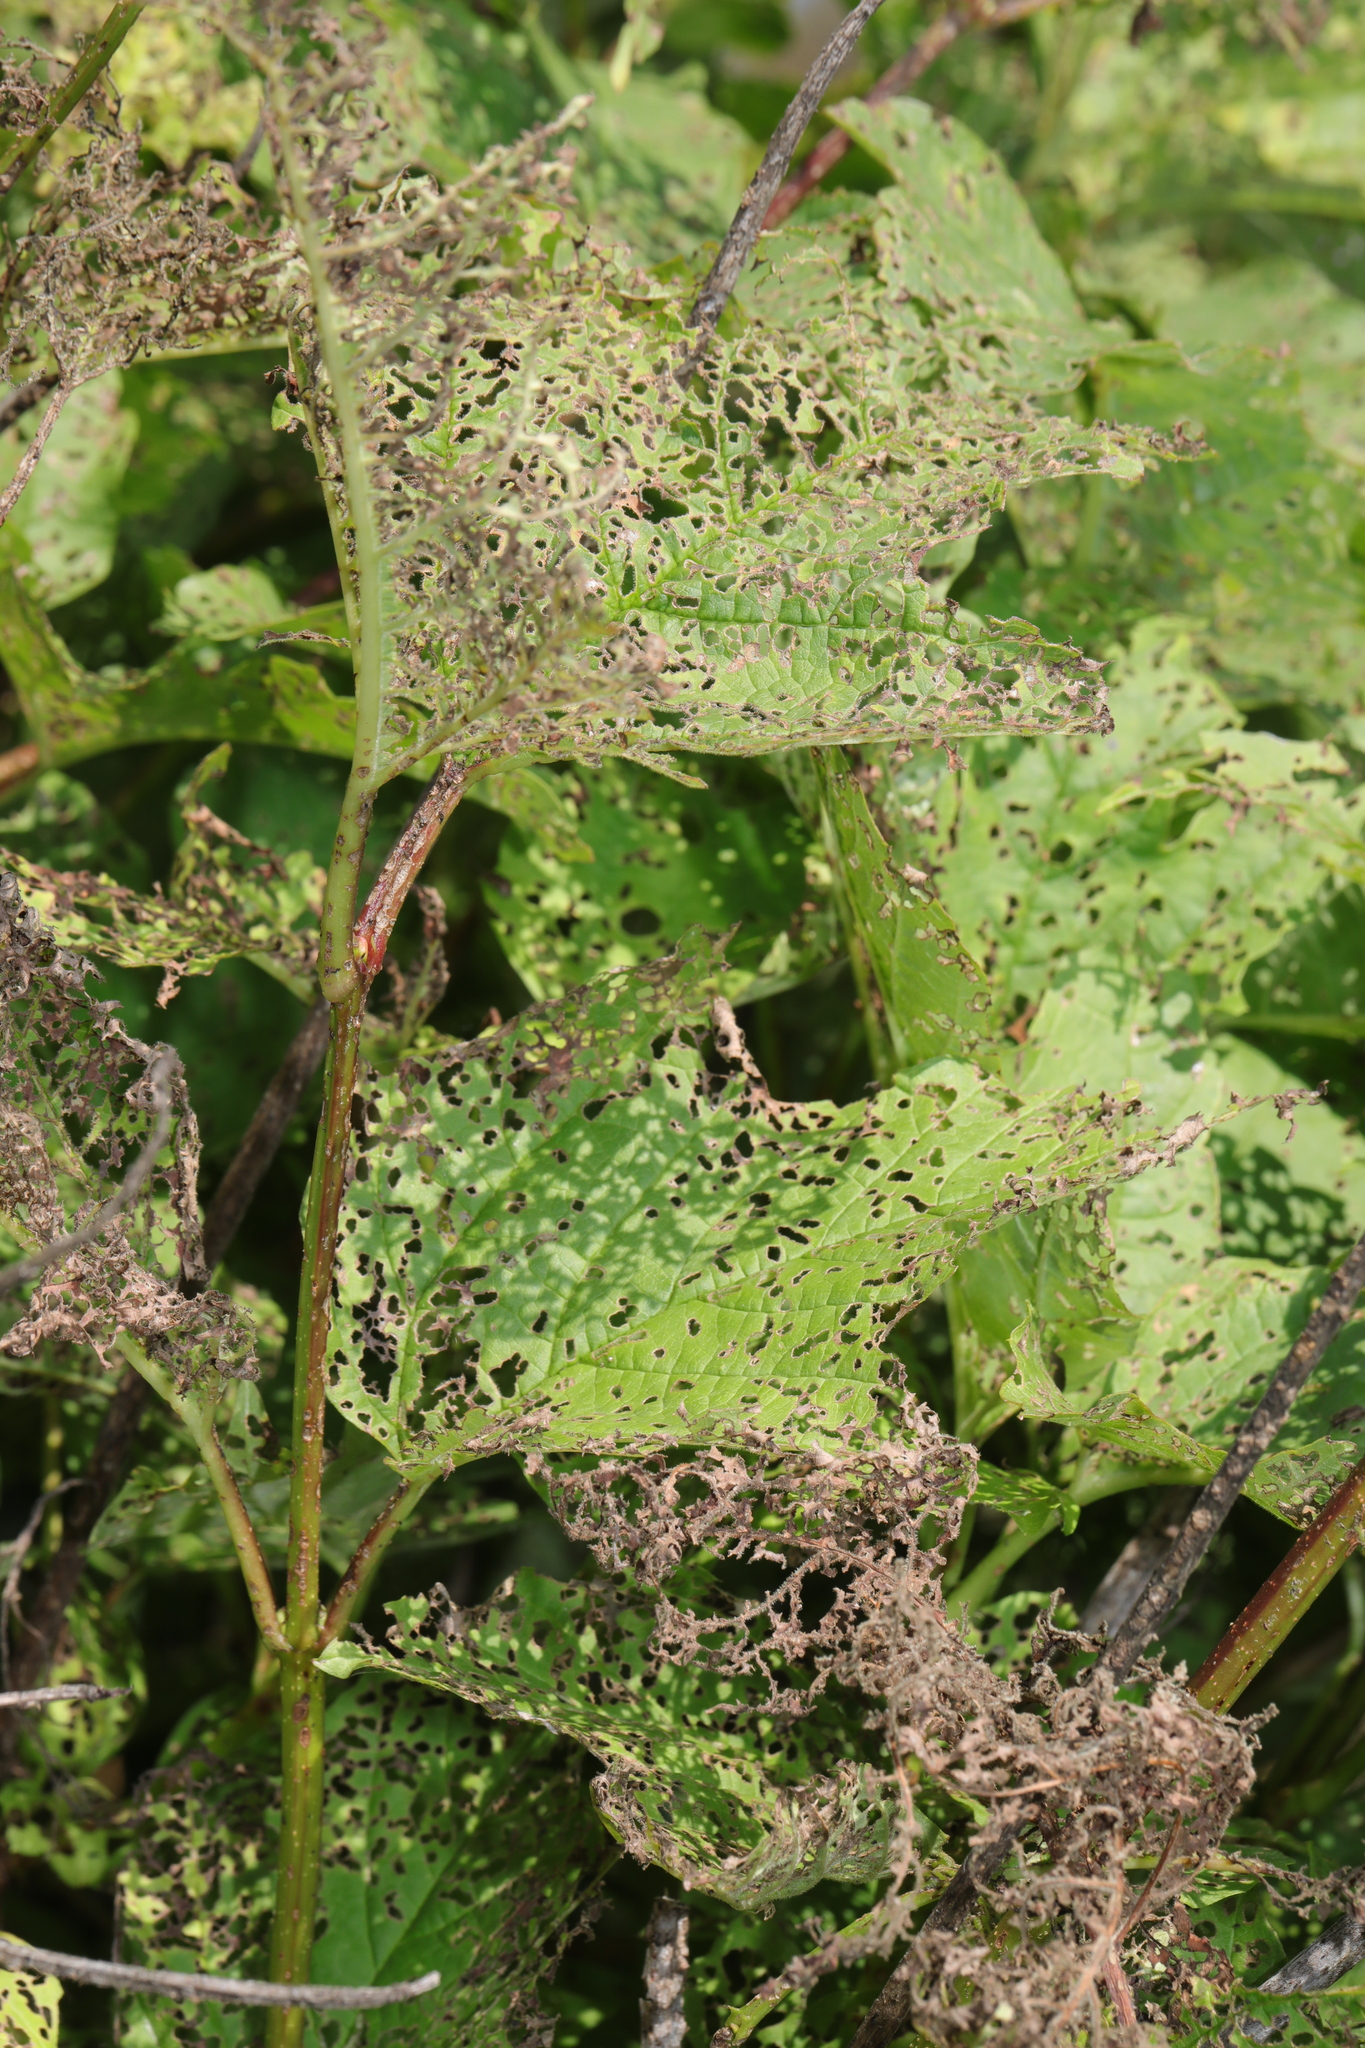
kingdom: Plantae
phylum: Tracheophyta
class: Magnoliopsida
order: Dipsacales
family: Viburnaceae
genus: Viburnum
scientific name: Viburnum opulus
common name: Guelder-rose
